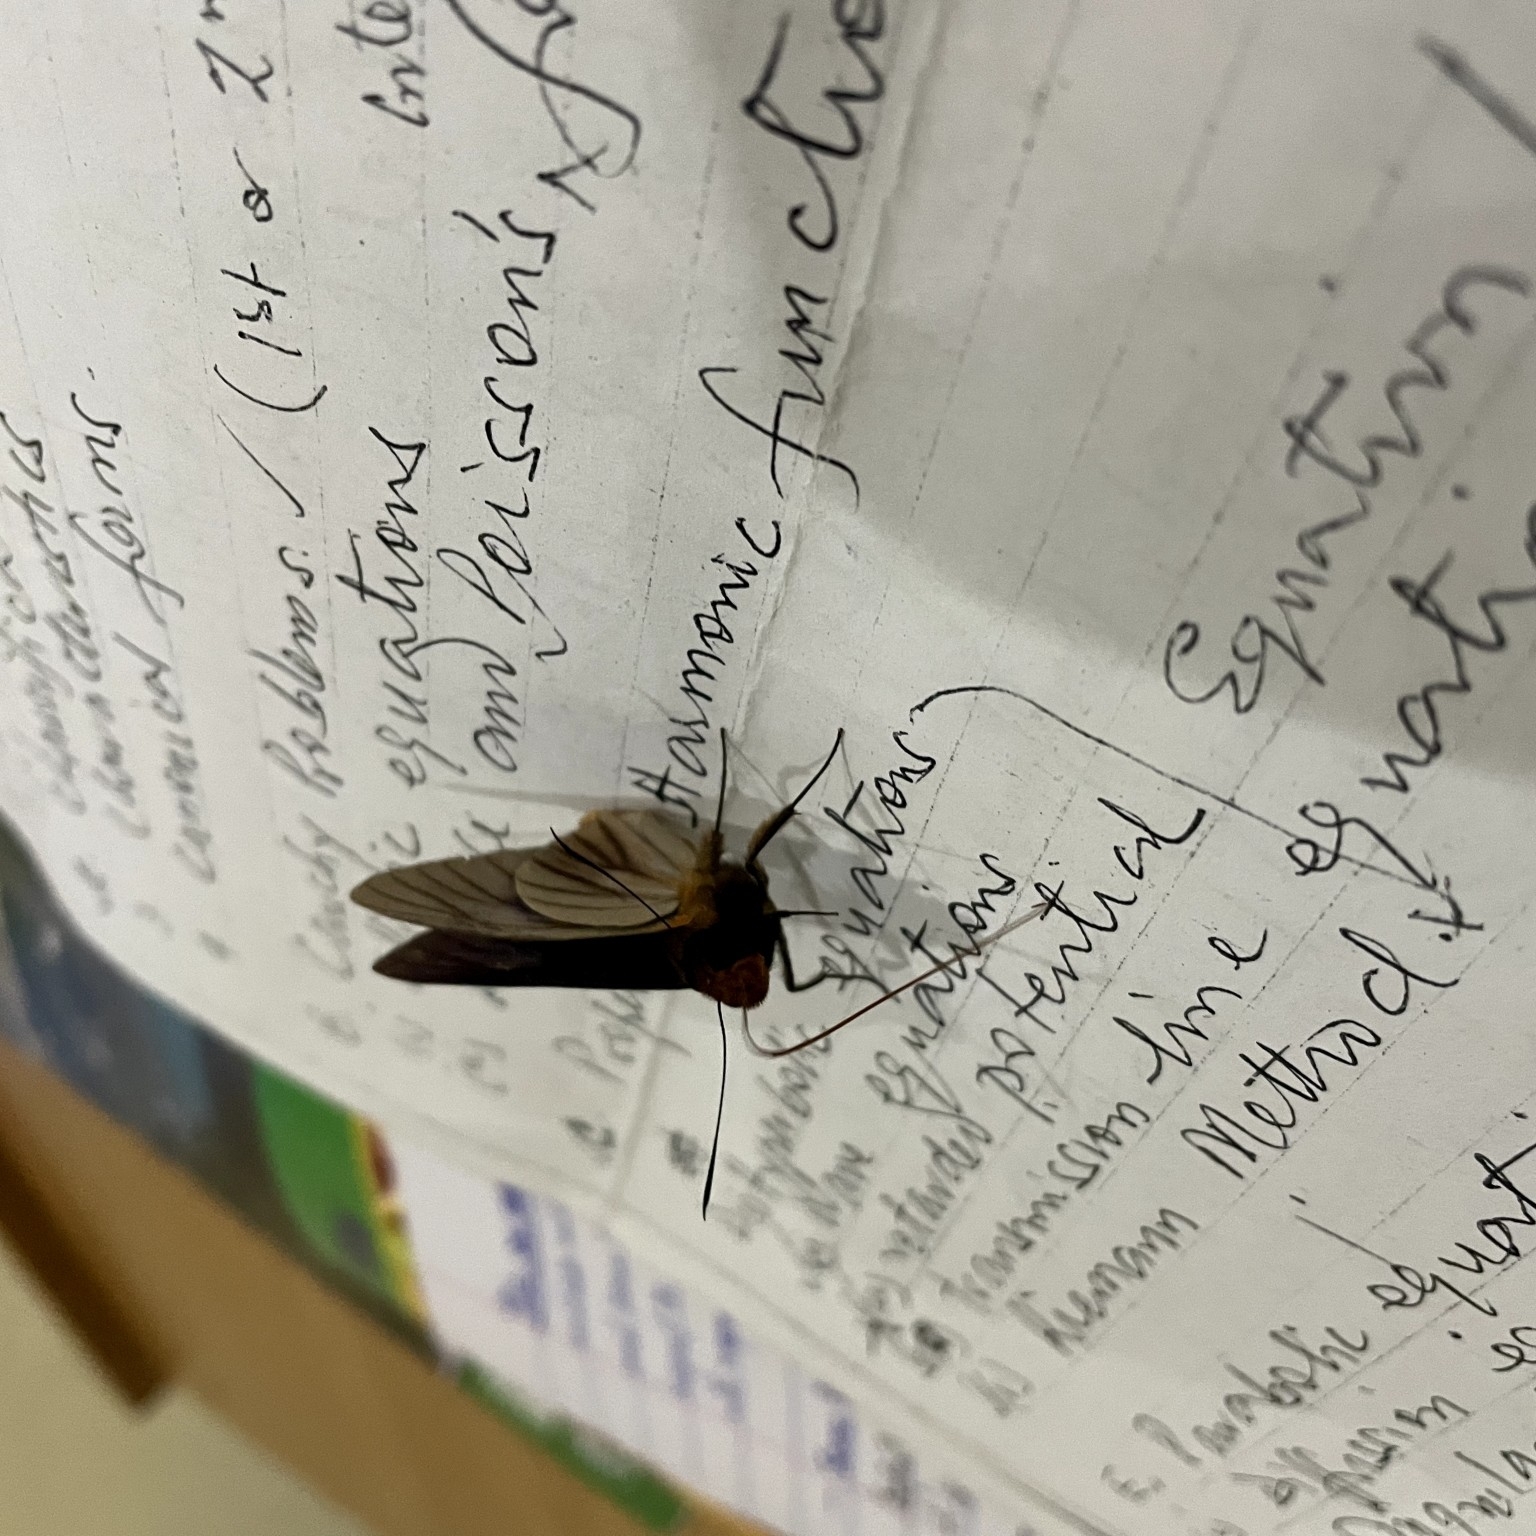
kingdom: Animalia
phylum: Arthropoda
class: Insecta
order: Lepidoptera
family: Hesperiidae
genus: Pteroteinon
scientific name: Pteroteinon laufella
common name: Blue red-eye
